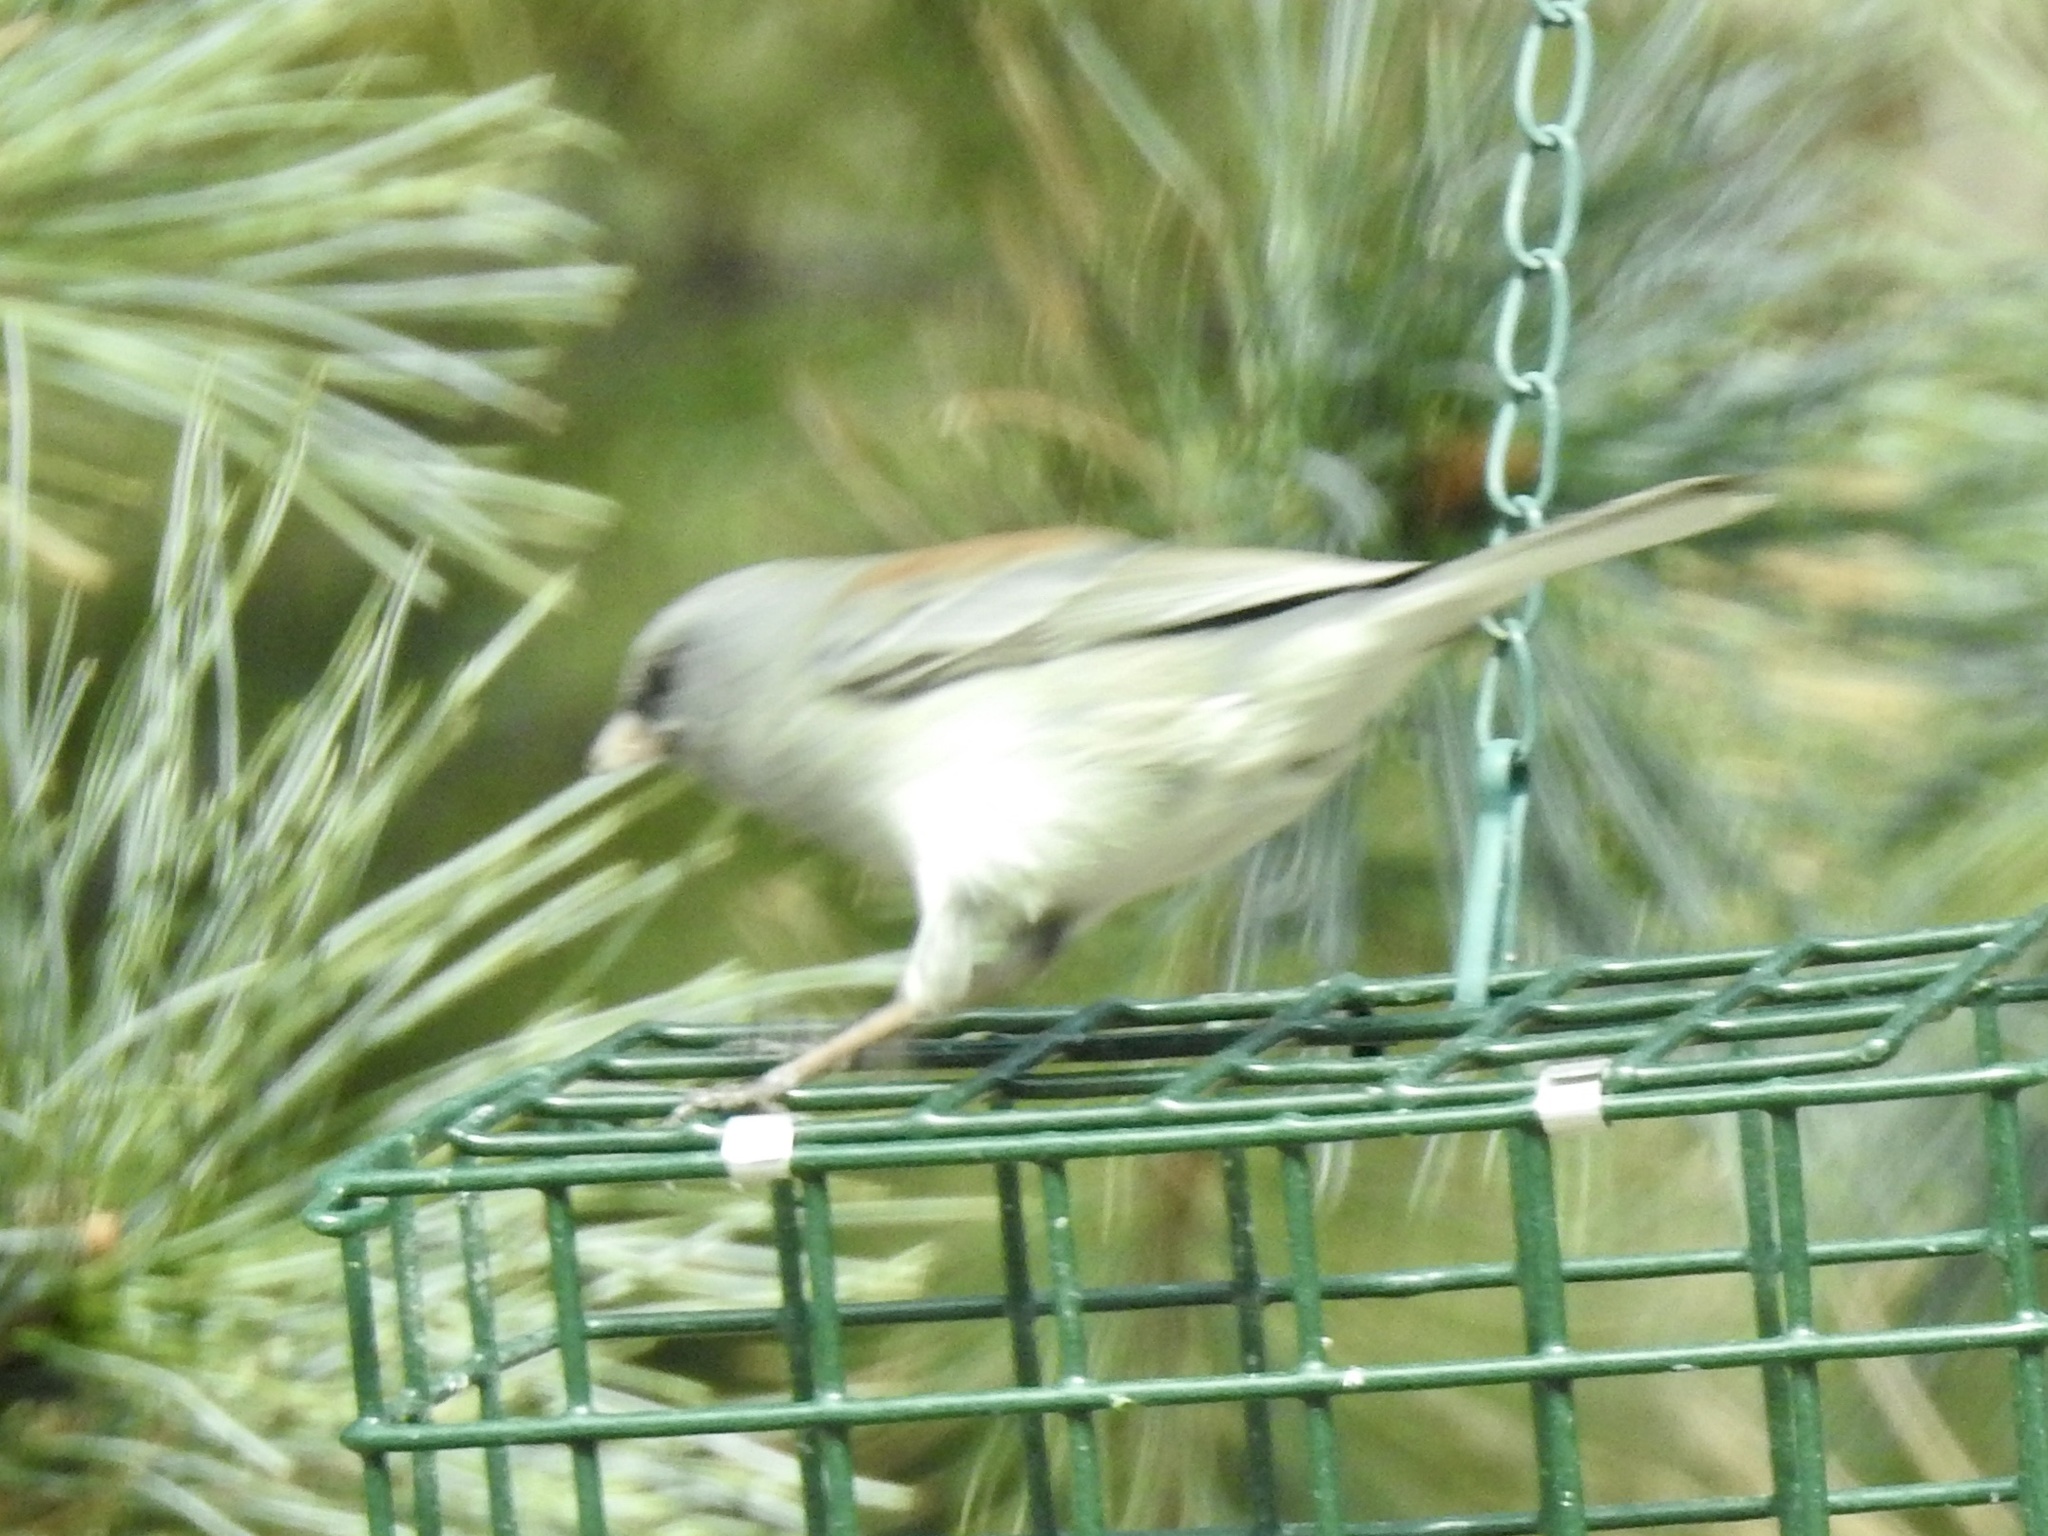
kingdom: Animalia
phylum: Chordata
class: Aves
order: Passeriformes
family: Passerellidae
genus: Junco
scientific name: Junco hyemalis
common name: Dark-eyed junco
